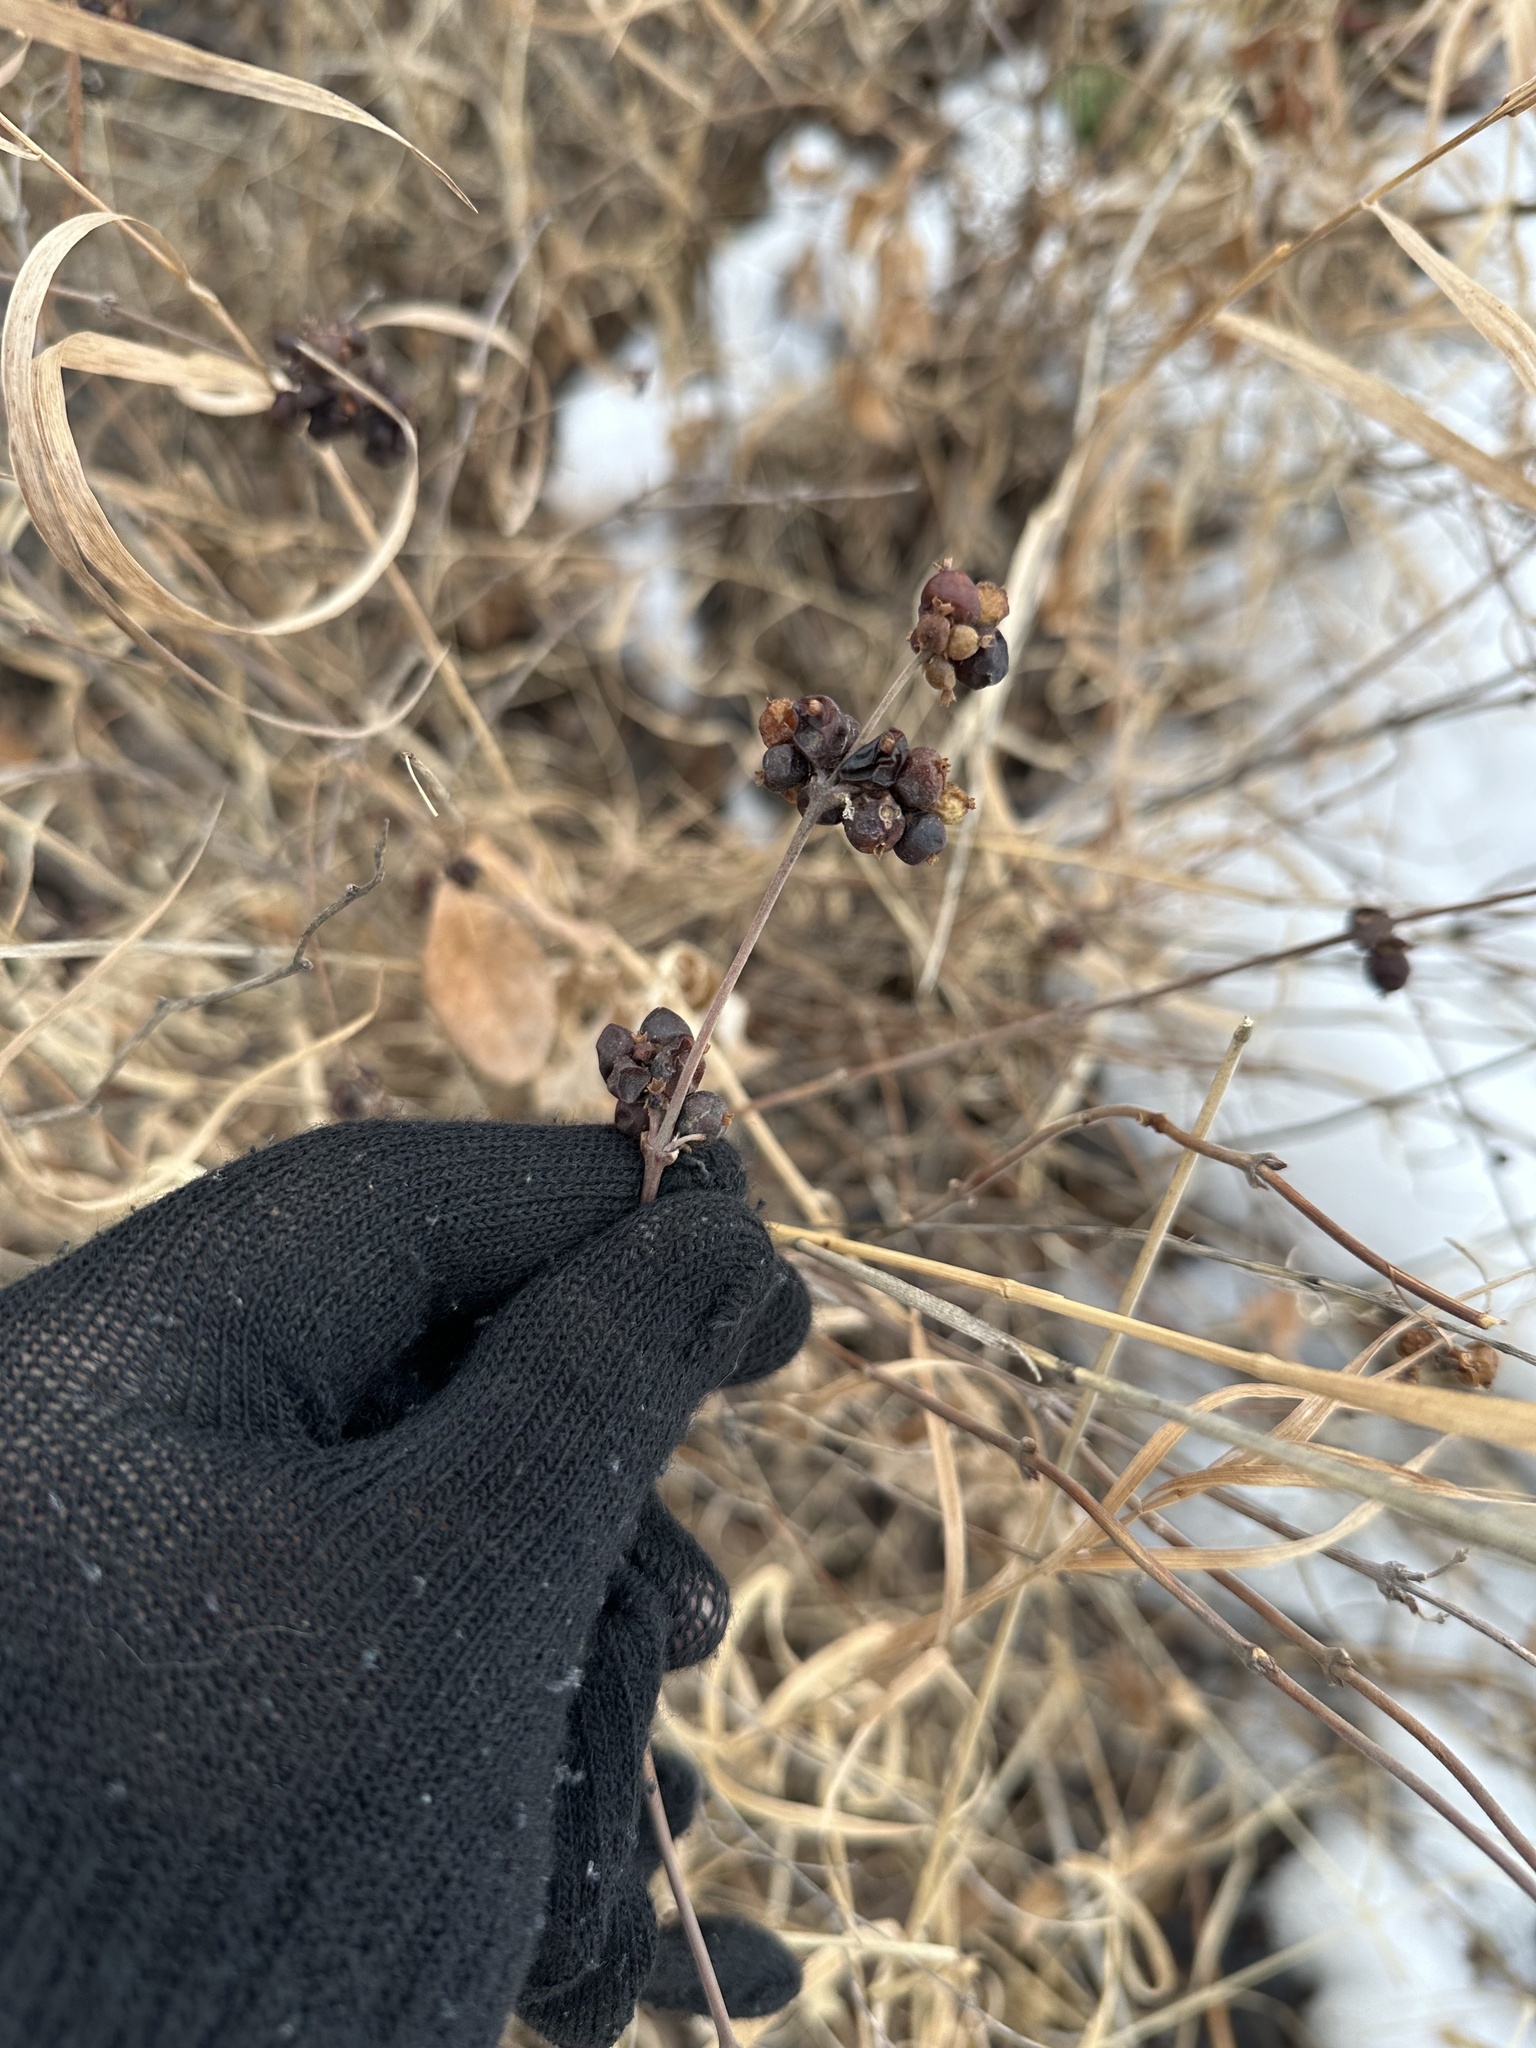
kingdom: Plantae
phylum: Tracheophyta
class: Magnoliopsida
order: Dipsacales
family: Caprifoliaceae
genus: Symphoricarpos
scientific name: Symphoricarpos occidentalis
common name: Wolfberry
